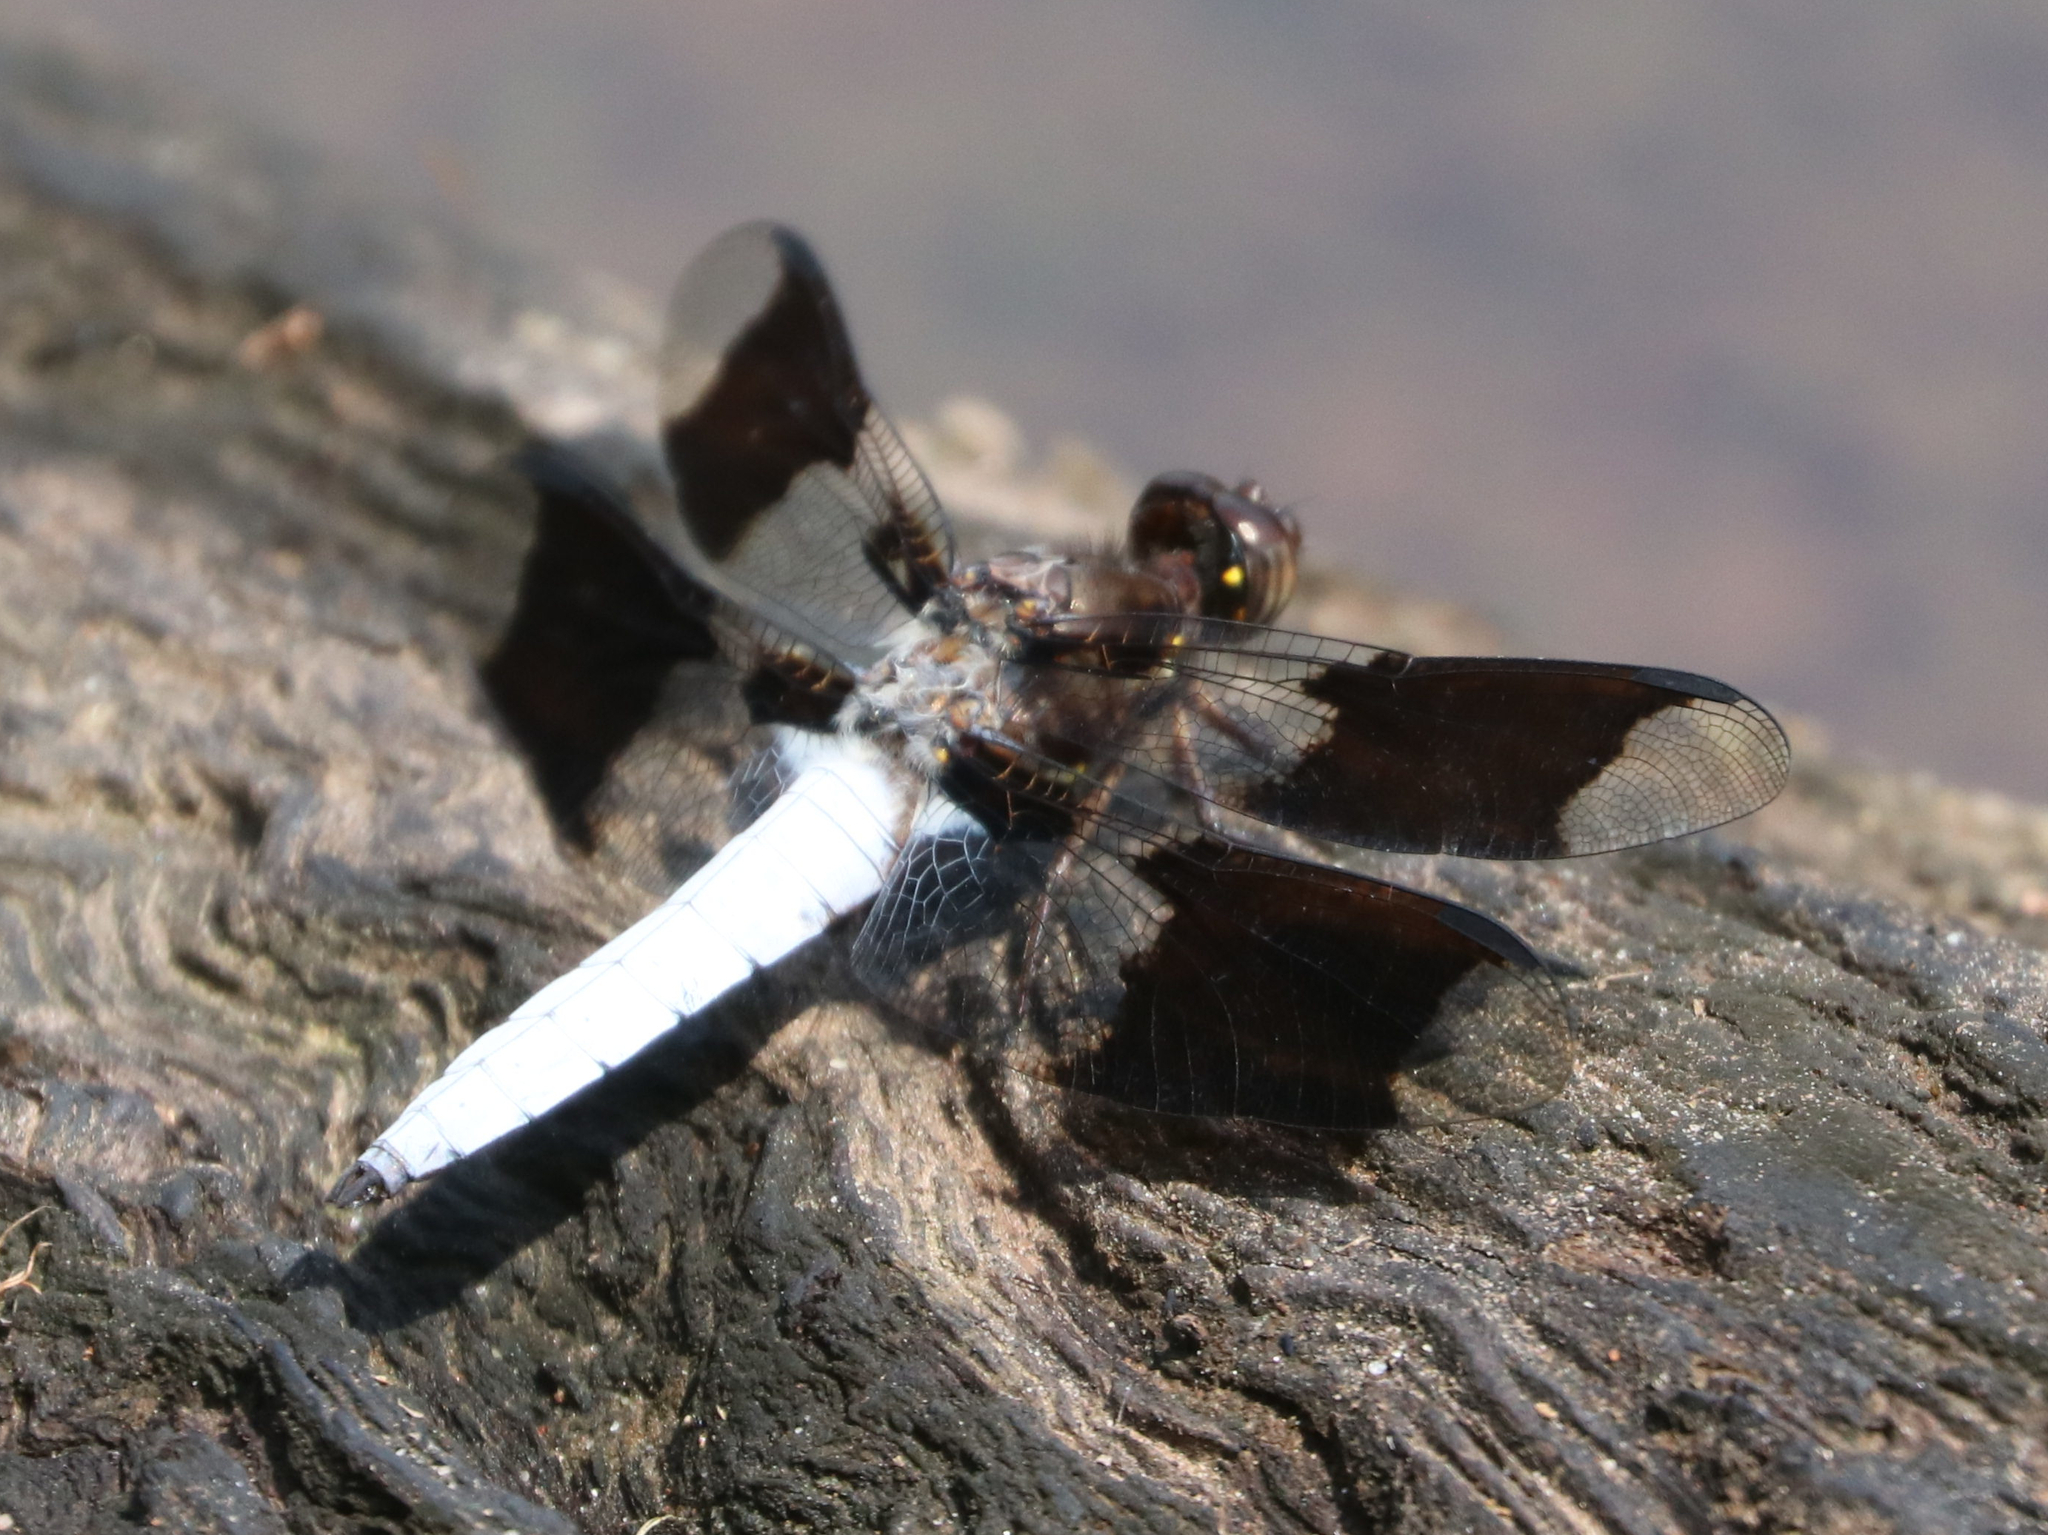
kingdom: Animalia
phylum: Arthropoda
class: Insecta
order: Odonata
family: Libellulidae
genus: Plathemis
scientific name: Plathemis lydia
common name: Common whitetail
